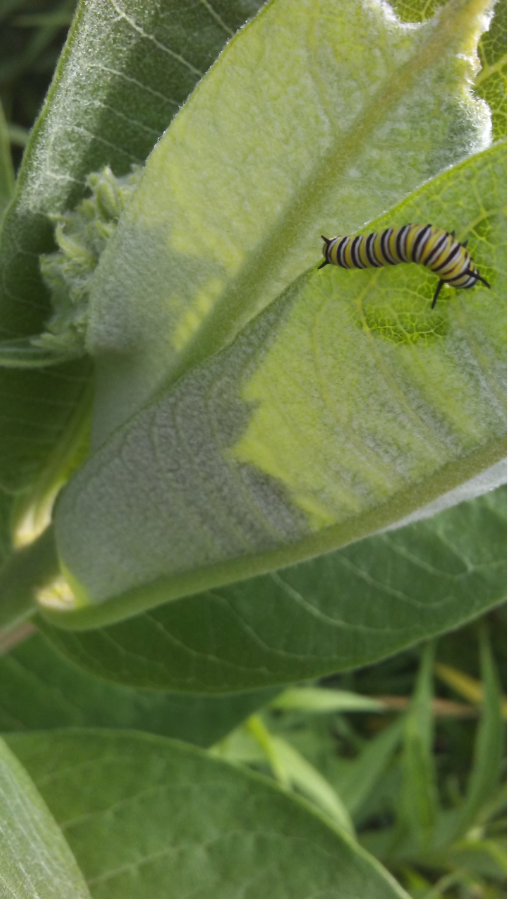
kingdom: Animalia
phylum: Arthropoda
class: Insecta
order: Lepidoptera
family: Nymphalidae
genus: Danaus
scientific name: Danaus plexippus
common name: Monarch
